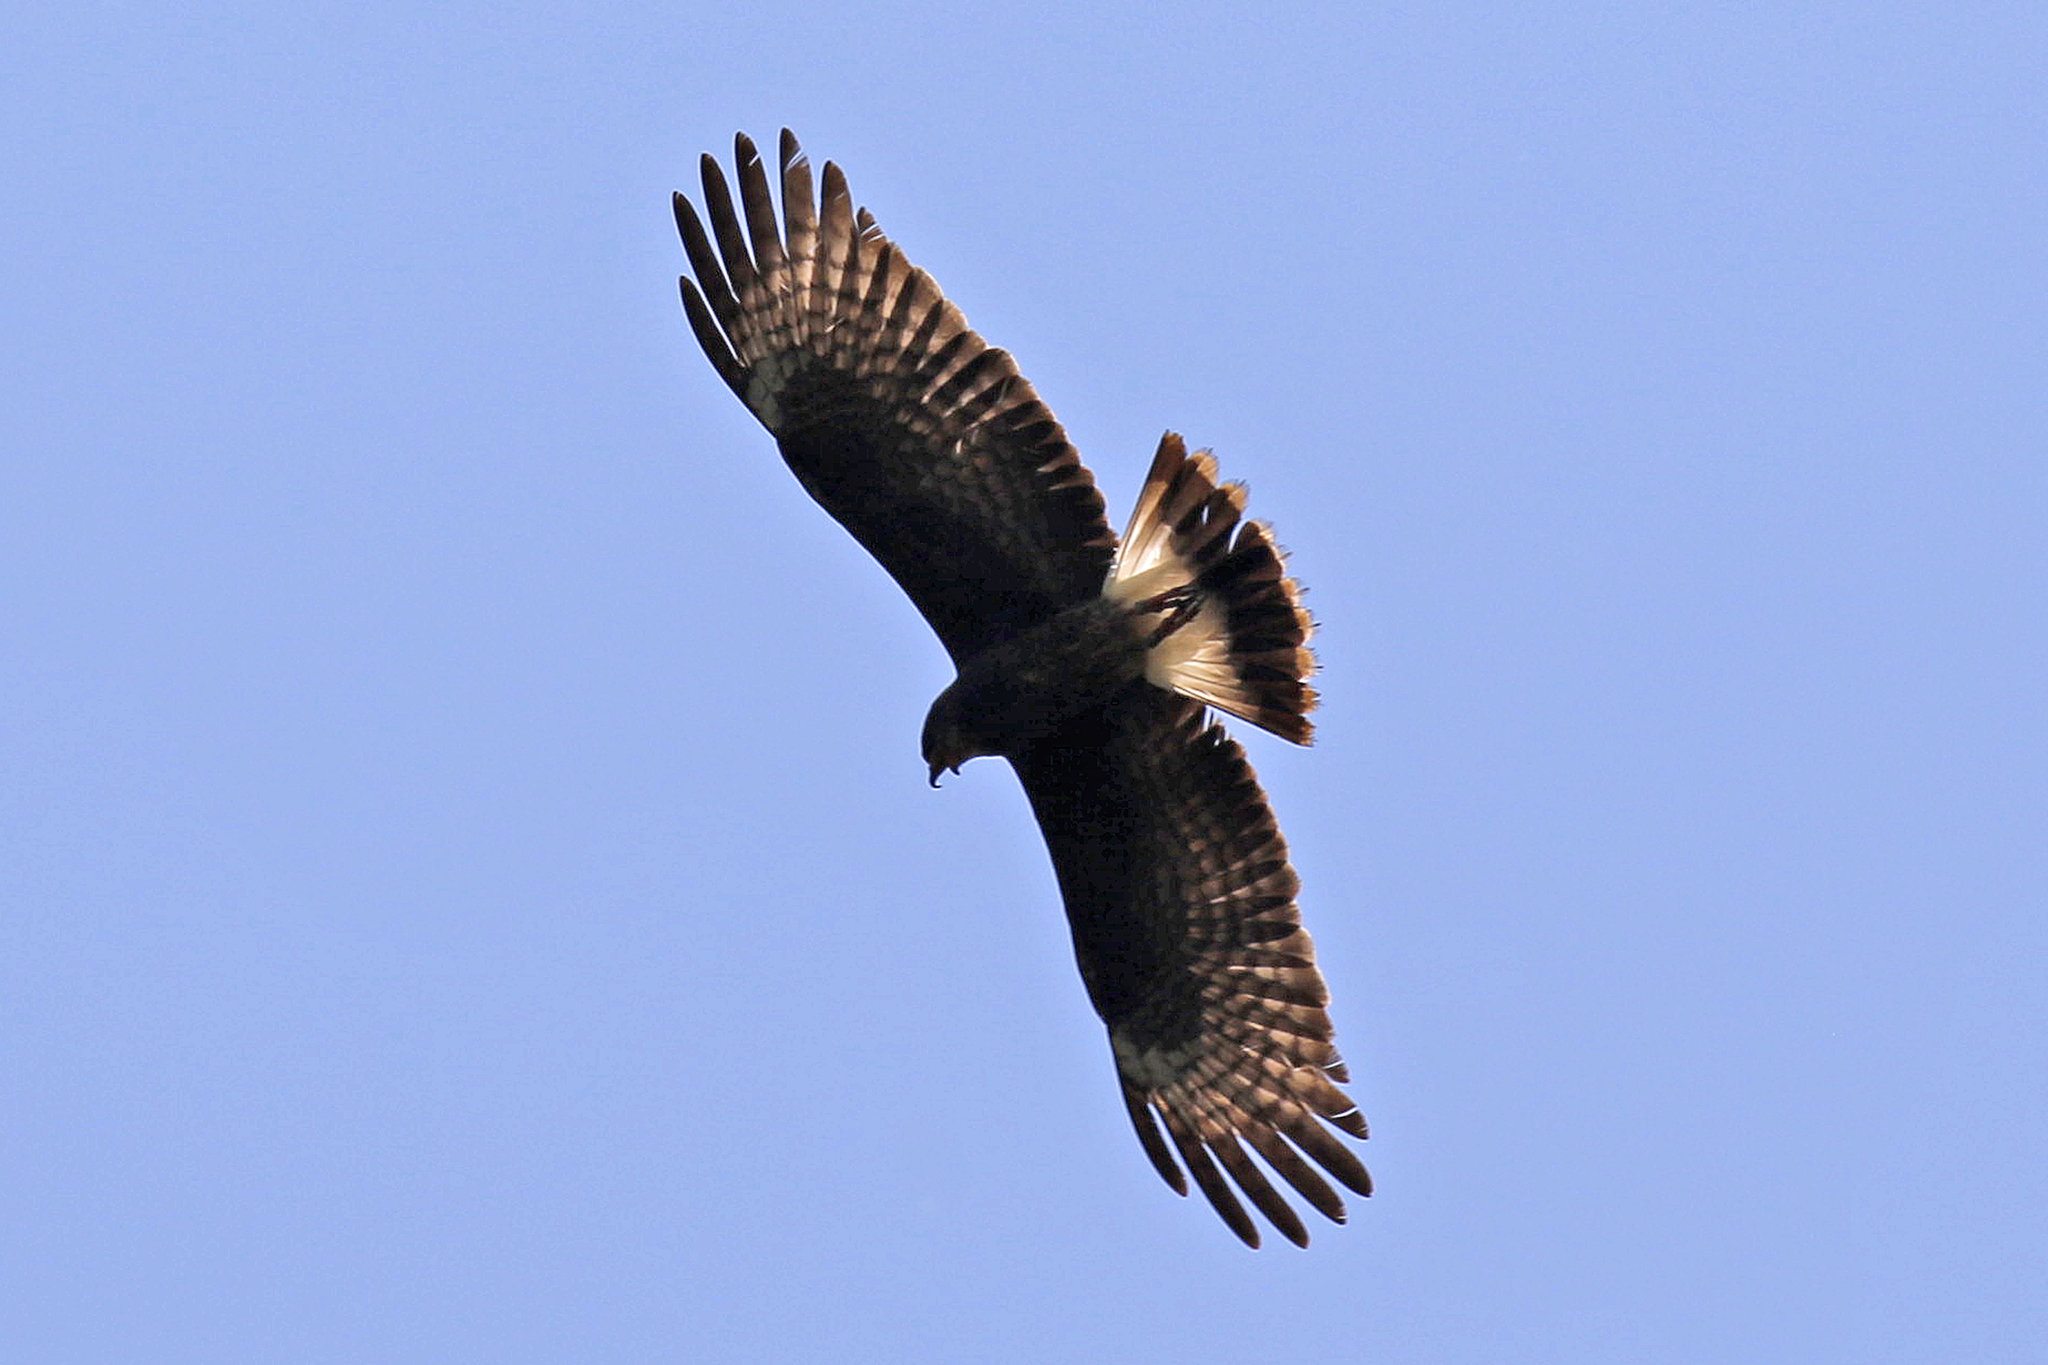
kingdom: Animalia
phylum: Chordata
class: Aves
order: Accipitriformes
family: Accipitridae
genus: Rostrhamus
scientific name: Rostrhamus sociabilis
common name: Snail kite
